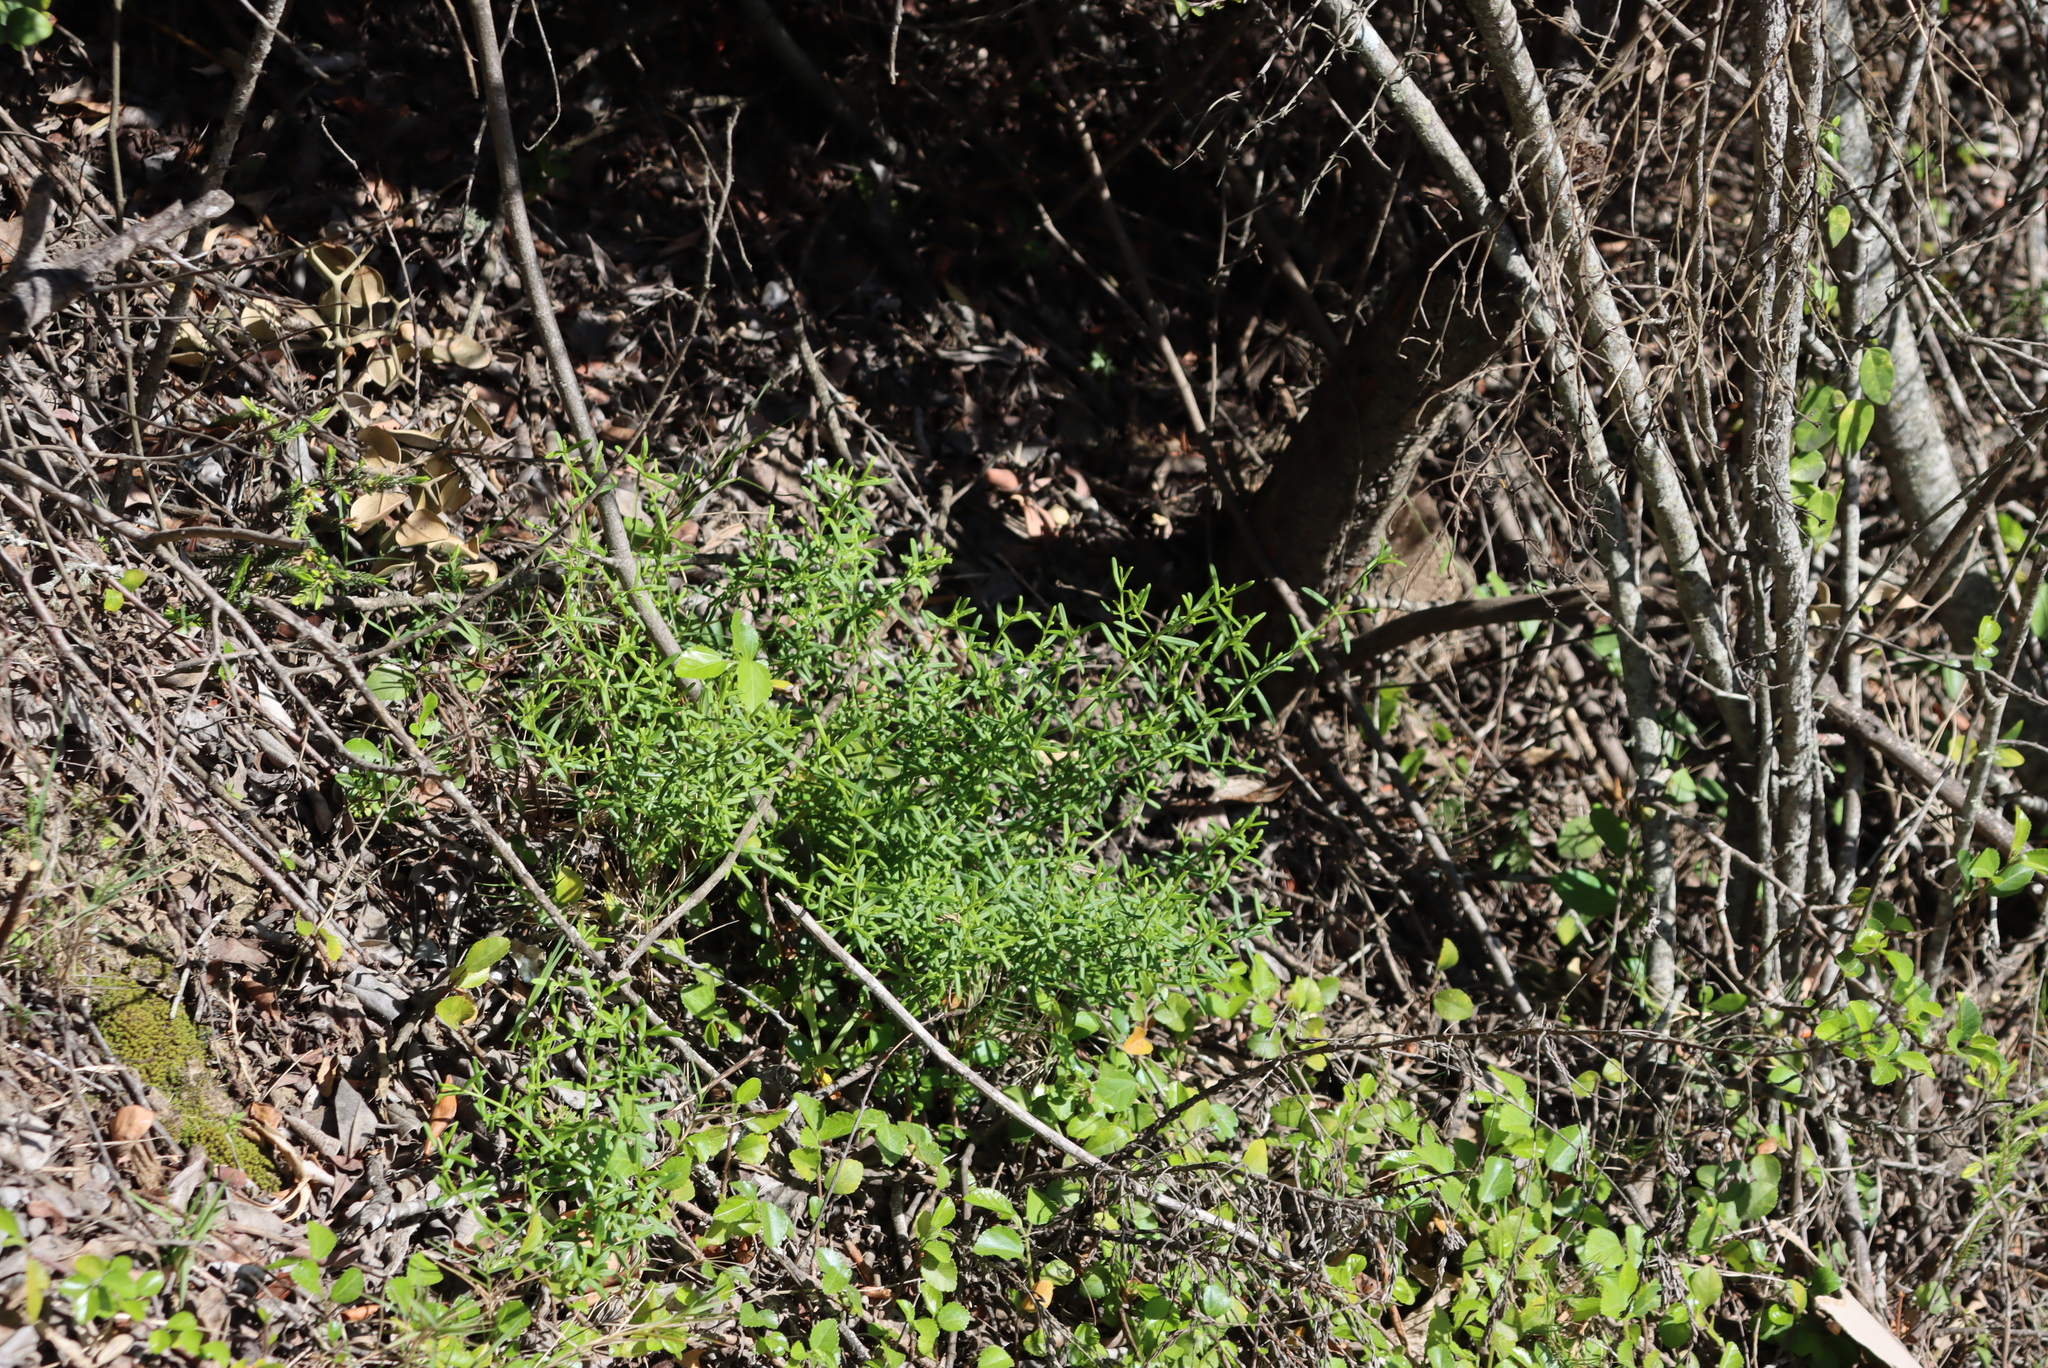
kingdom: Plantae
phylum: Tracheophyta
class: Magnoliopsida
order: Gentianales
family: Gentianaceae
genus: Chironia
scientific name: Chironia baccifera
